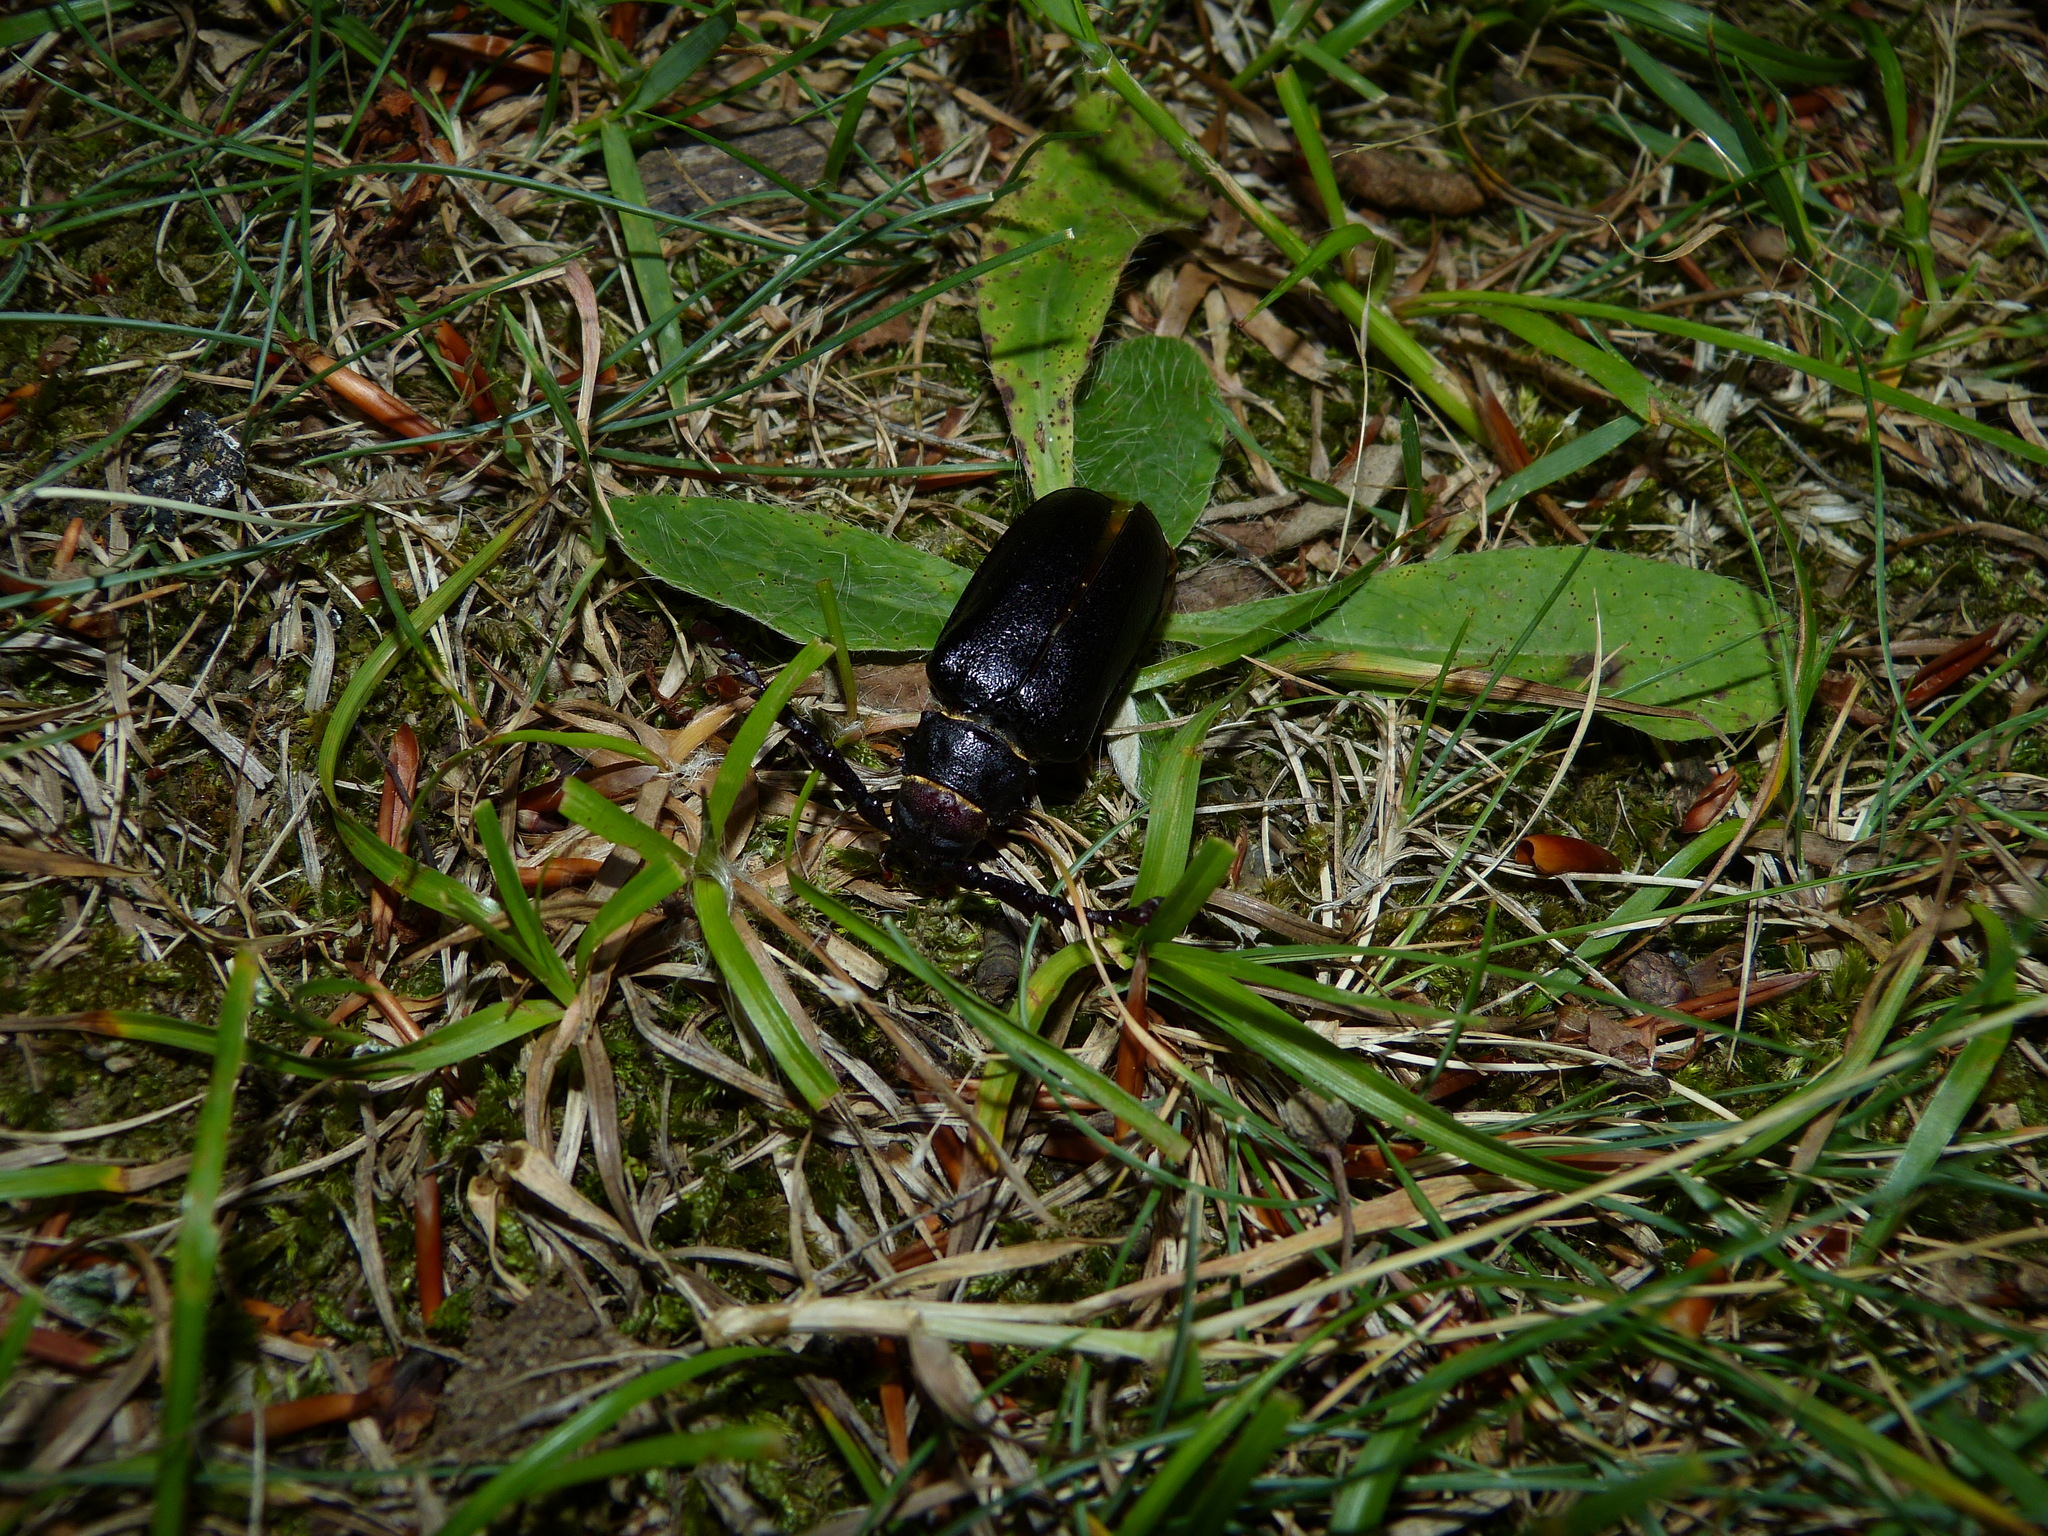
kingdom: Animalia
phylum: Arthropoda
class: Insecta
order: Coleoptera
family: Cerambycidae
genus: Prionus
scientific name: Prionus coriarius
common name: Tanner beetle
